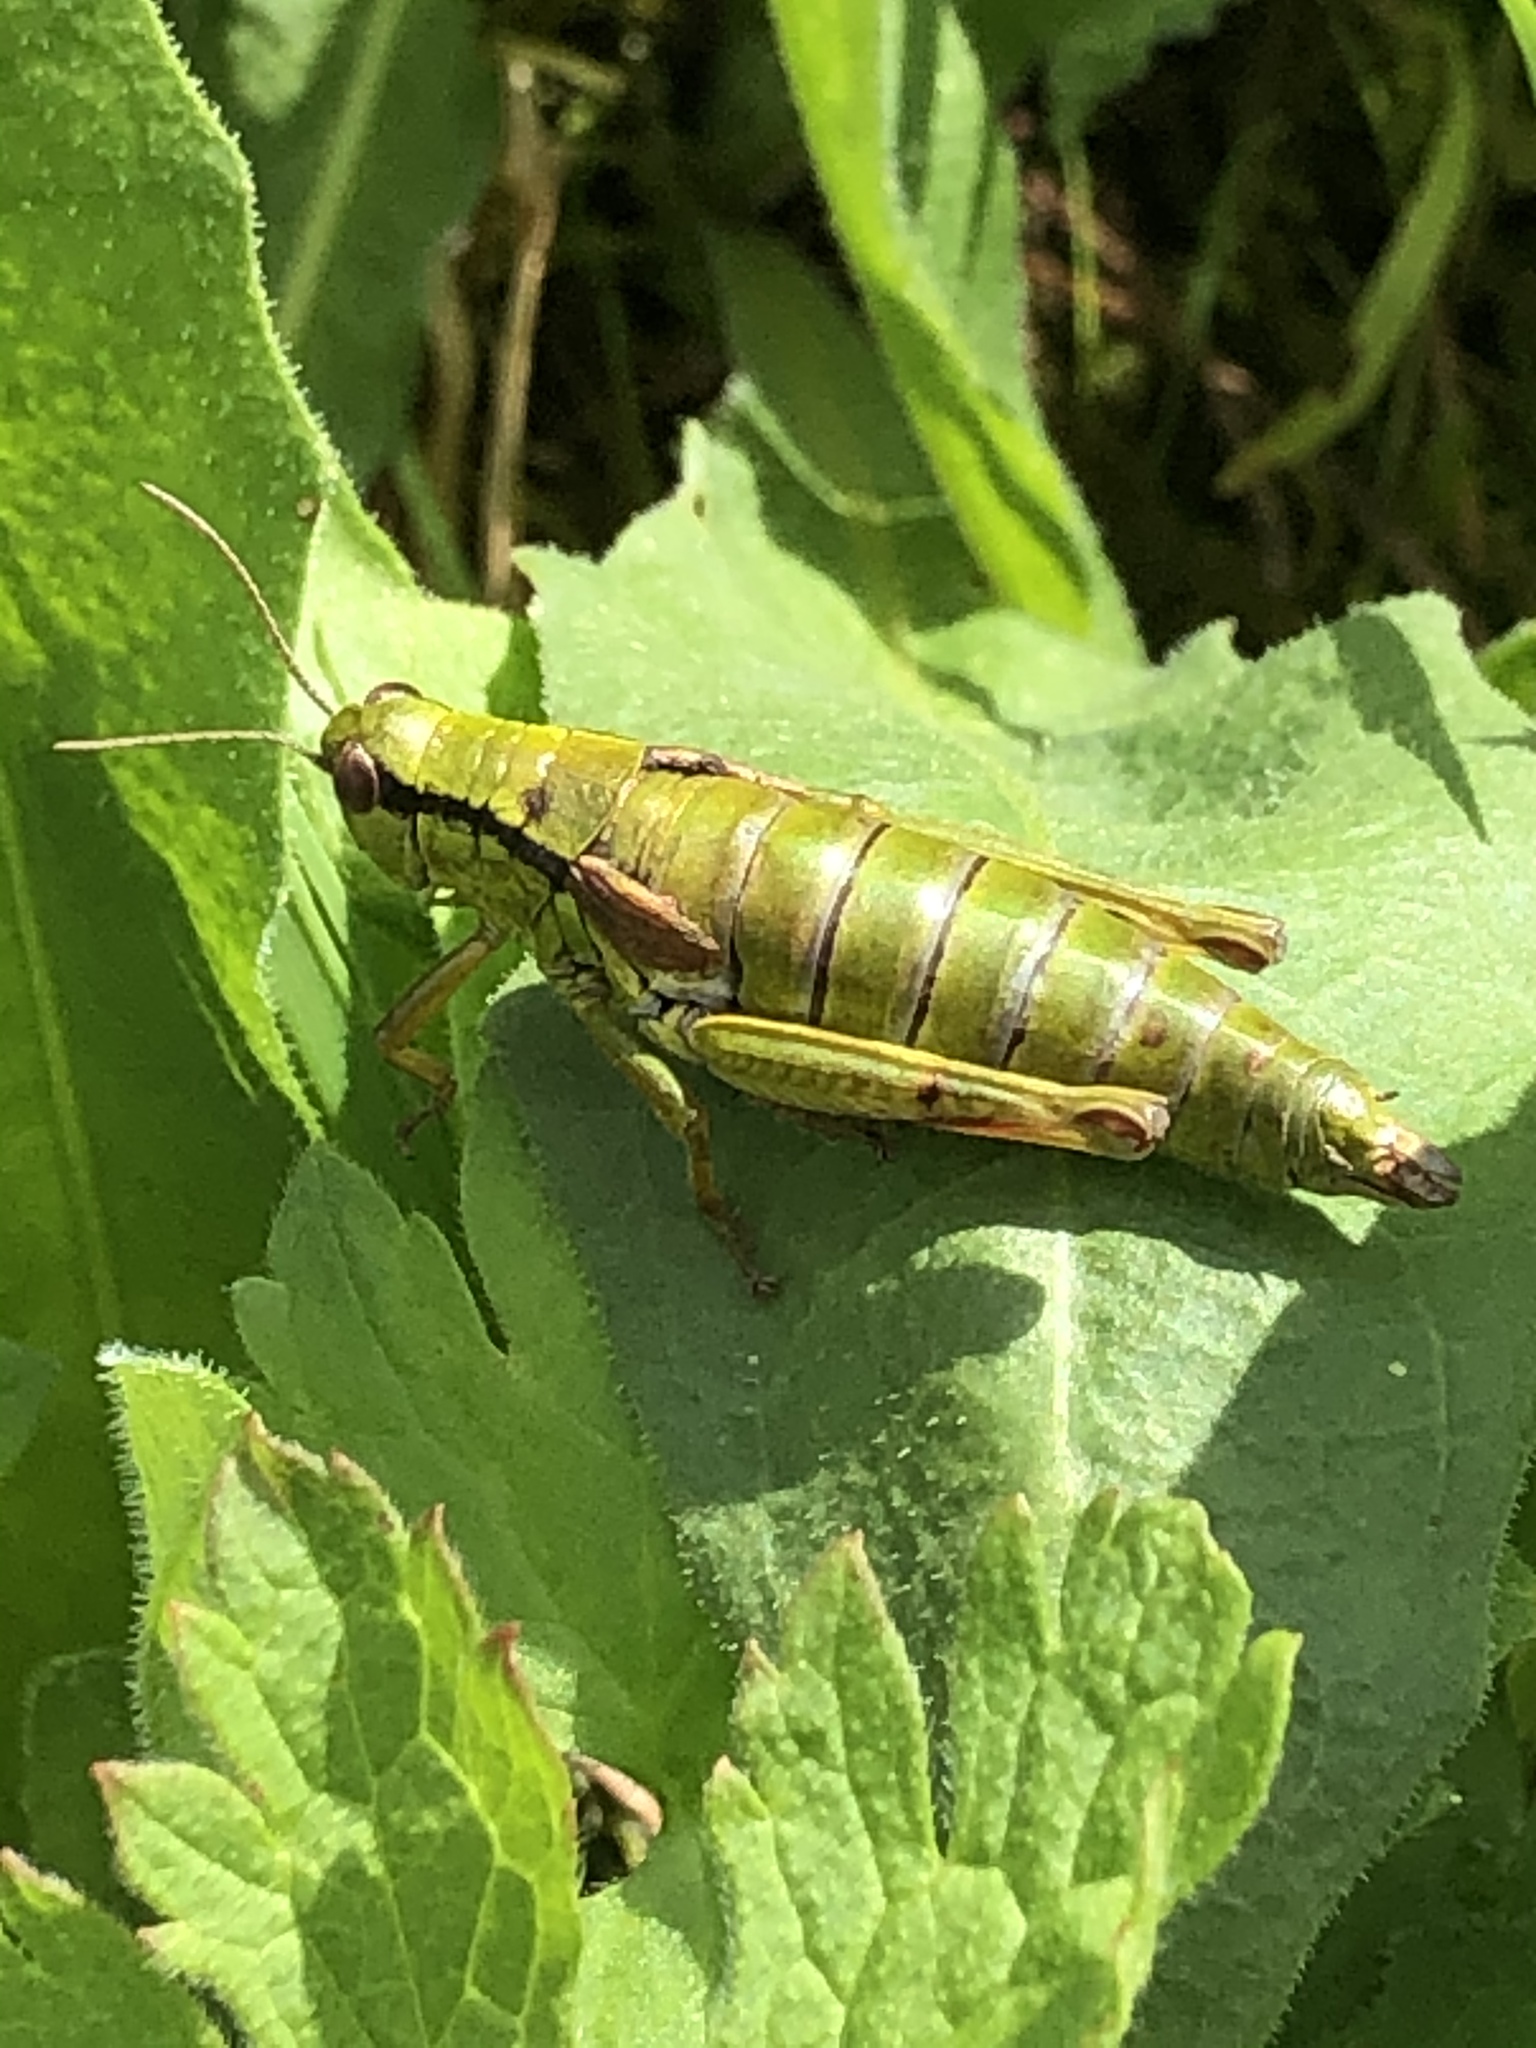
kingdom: Animalia
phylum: Arthropoda
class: Insecta
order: Orthoptera
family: Acrididae
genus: Miramella
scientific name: Miramella alpina
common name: Green mountain grasshopper
